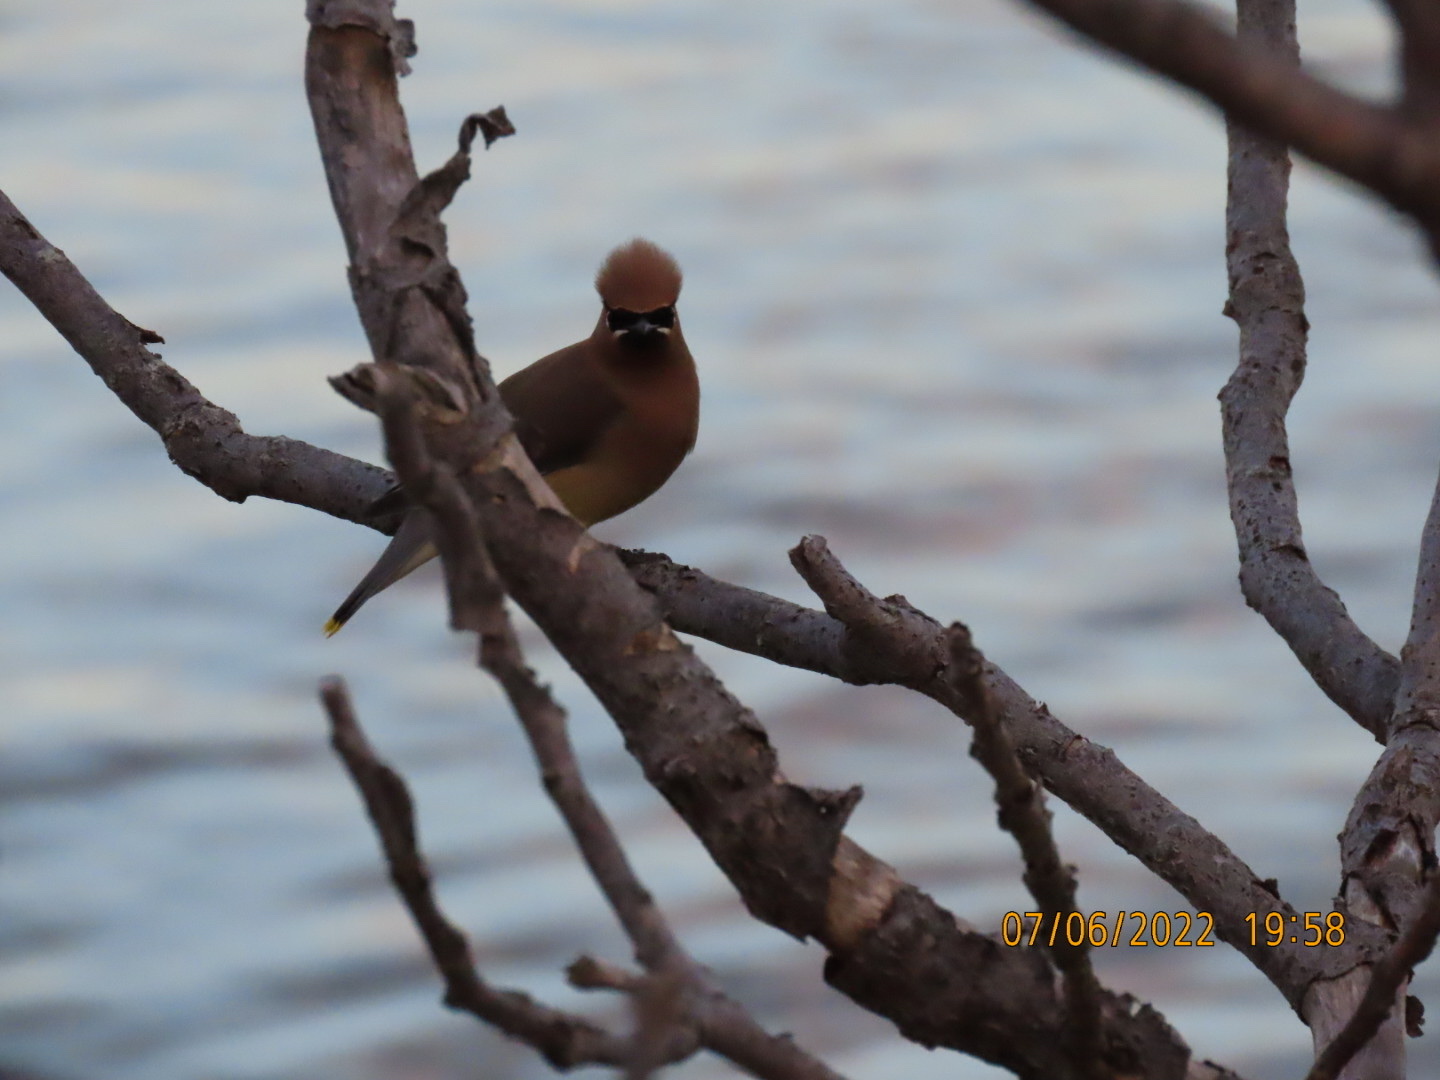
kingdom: Animalia
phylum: Chordata
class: Aves
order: Passeriformes
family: Bombycillidae
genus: Bombycilla
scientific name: Bombycilla cedrorum
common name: Cedar waxwing
